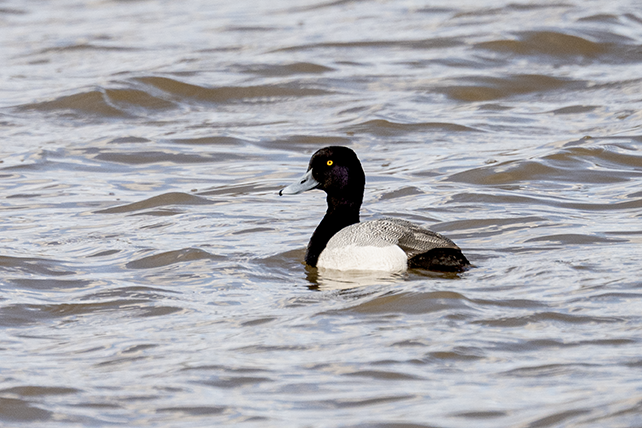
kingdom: Animalia
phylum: Chordata
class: Aves
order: Anseriformes
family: Anatidae
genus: Aythya
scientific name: Aythya affinis
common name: Lesser scaup
